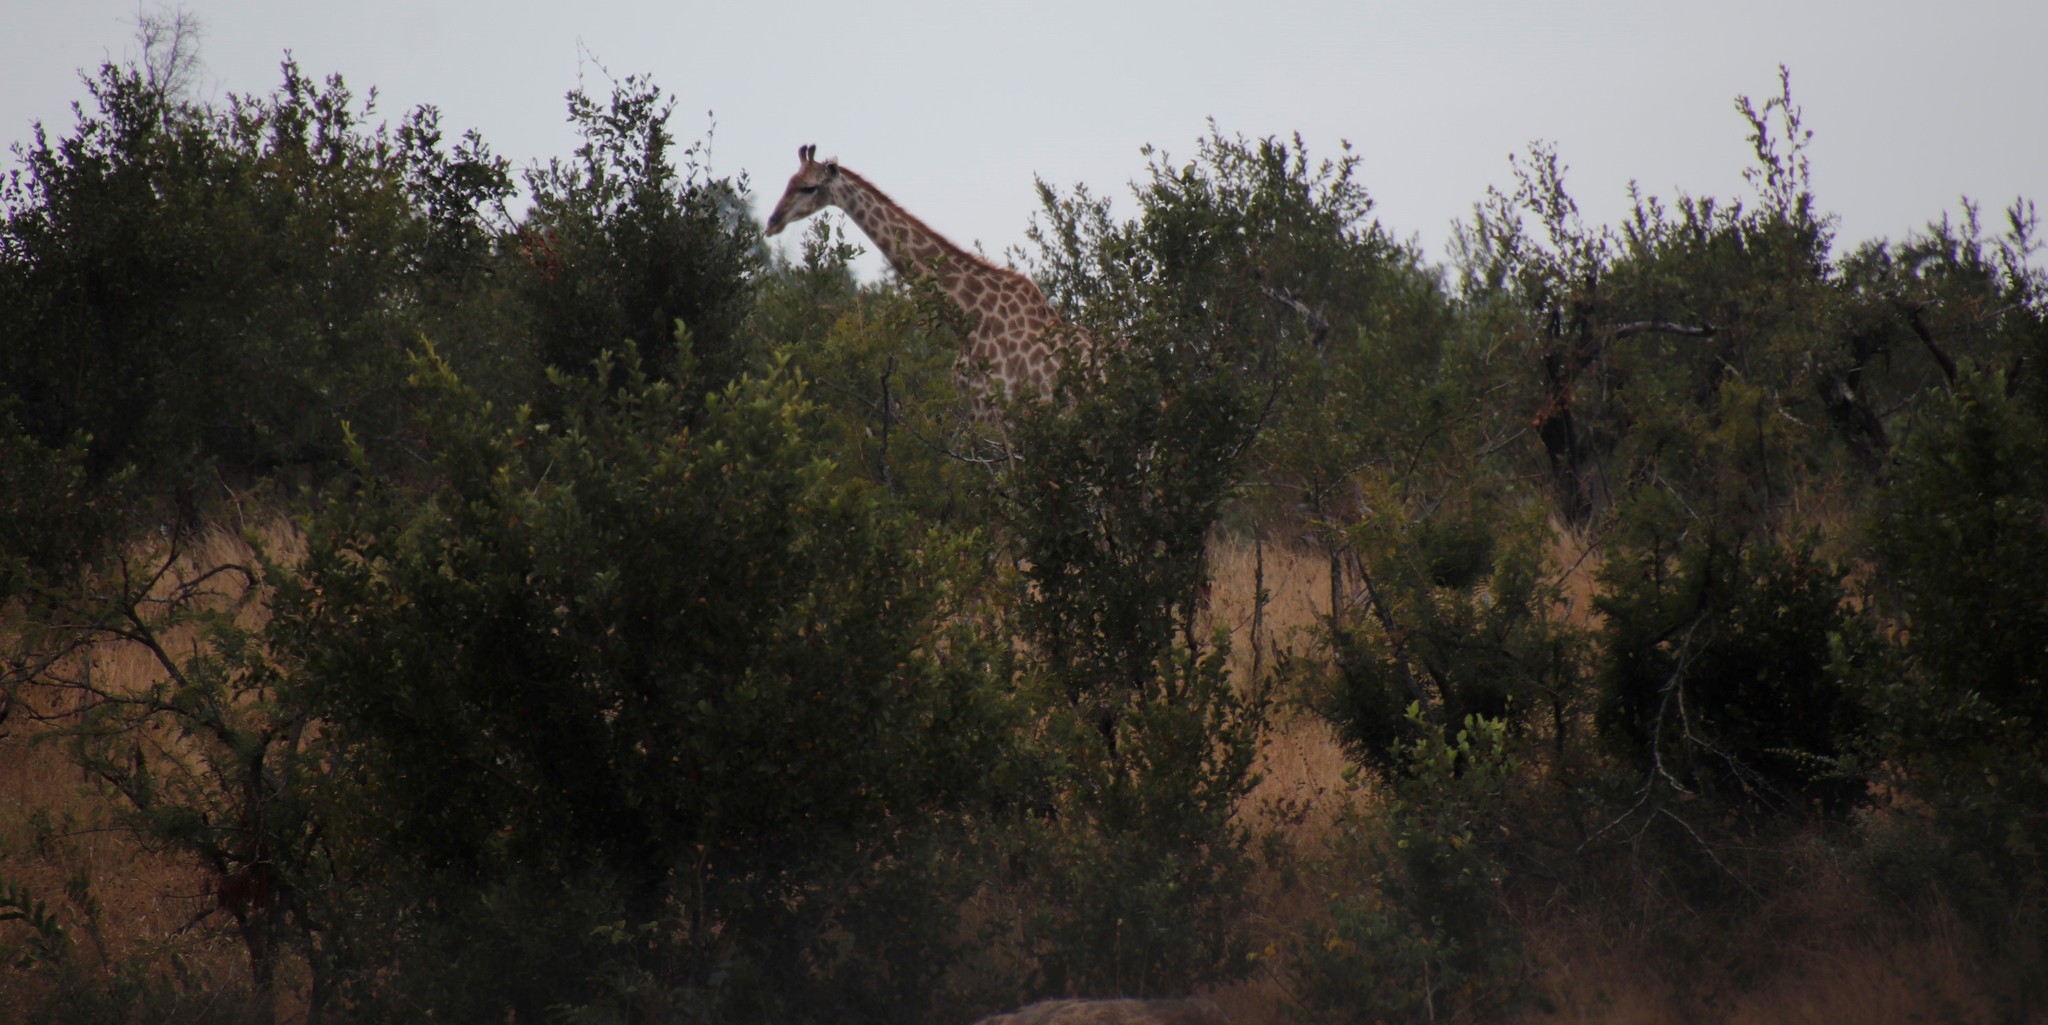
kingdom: Animalia
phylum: Chordata
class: Mammalia
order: Artiodactyla
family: Giraffidae
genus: Giraffa
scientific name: Giraffa giraffa
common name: Southern giraffe
